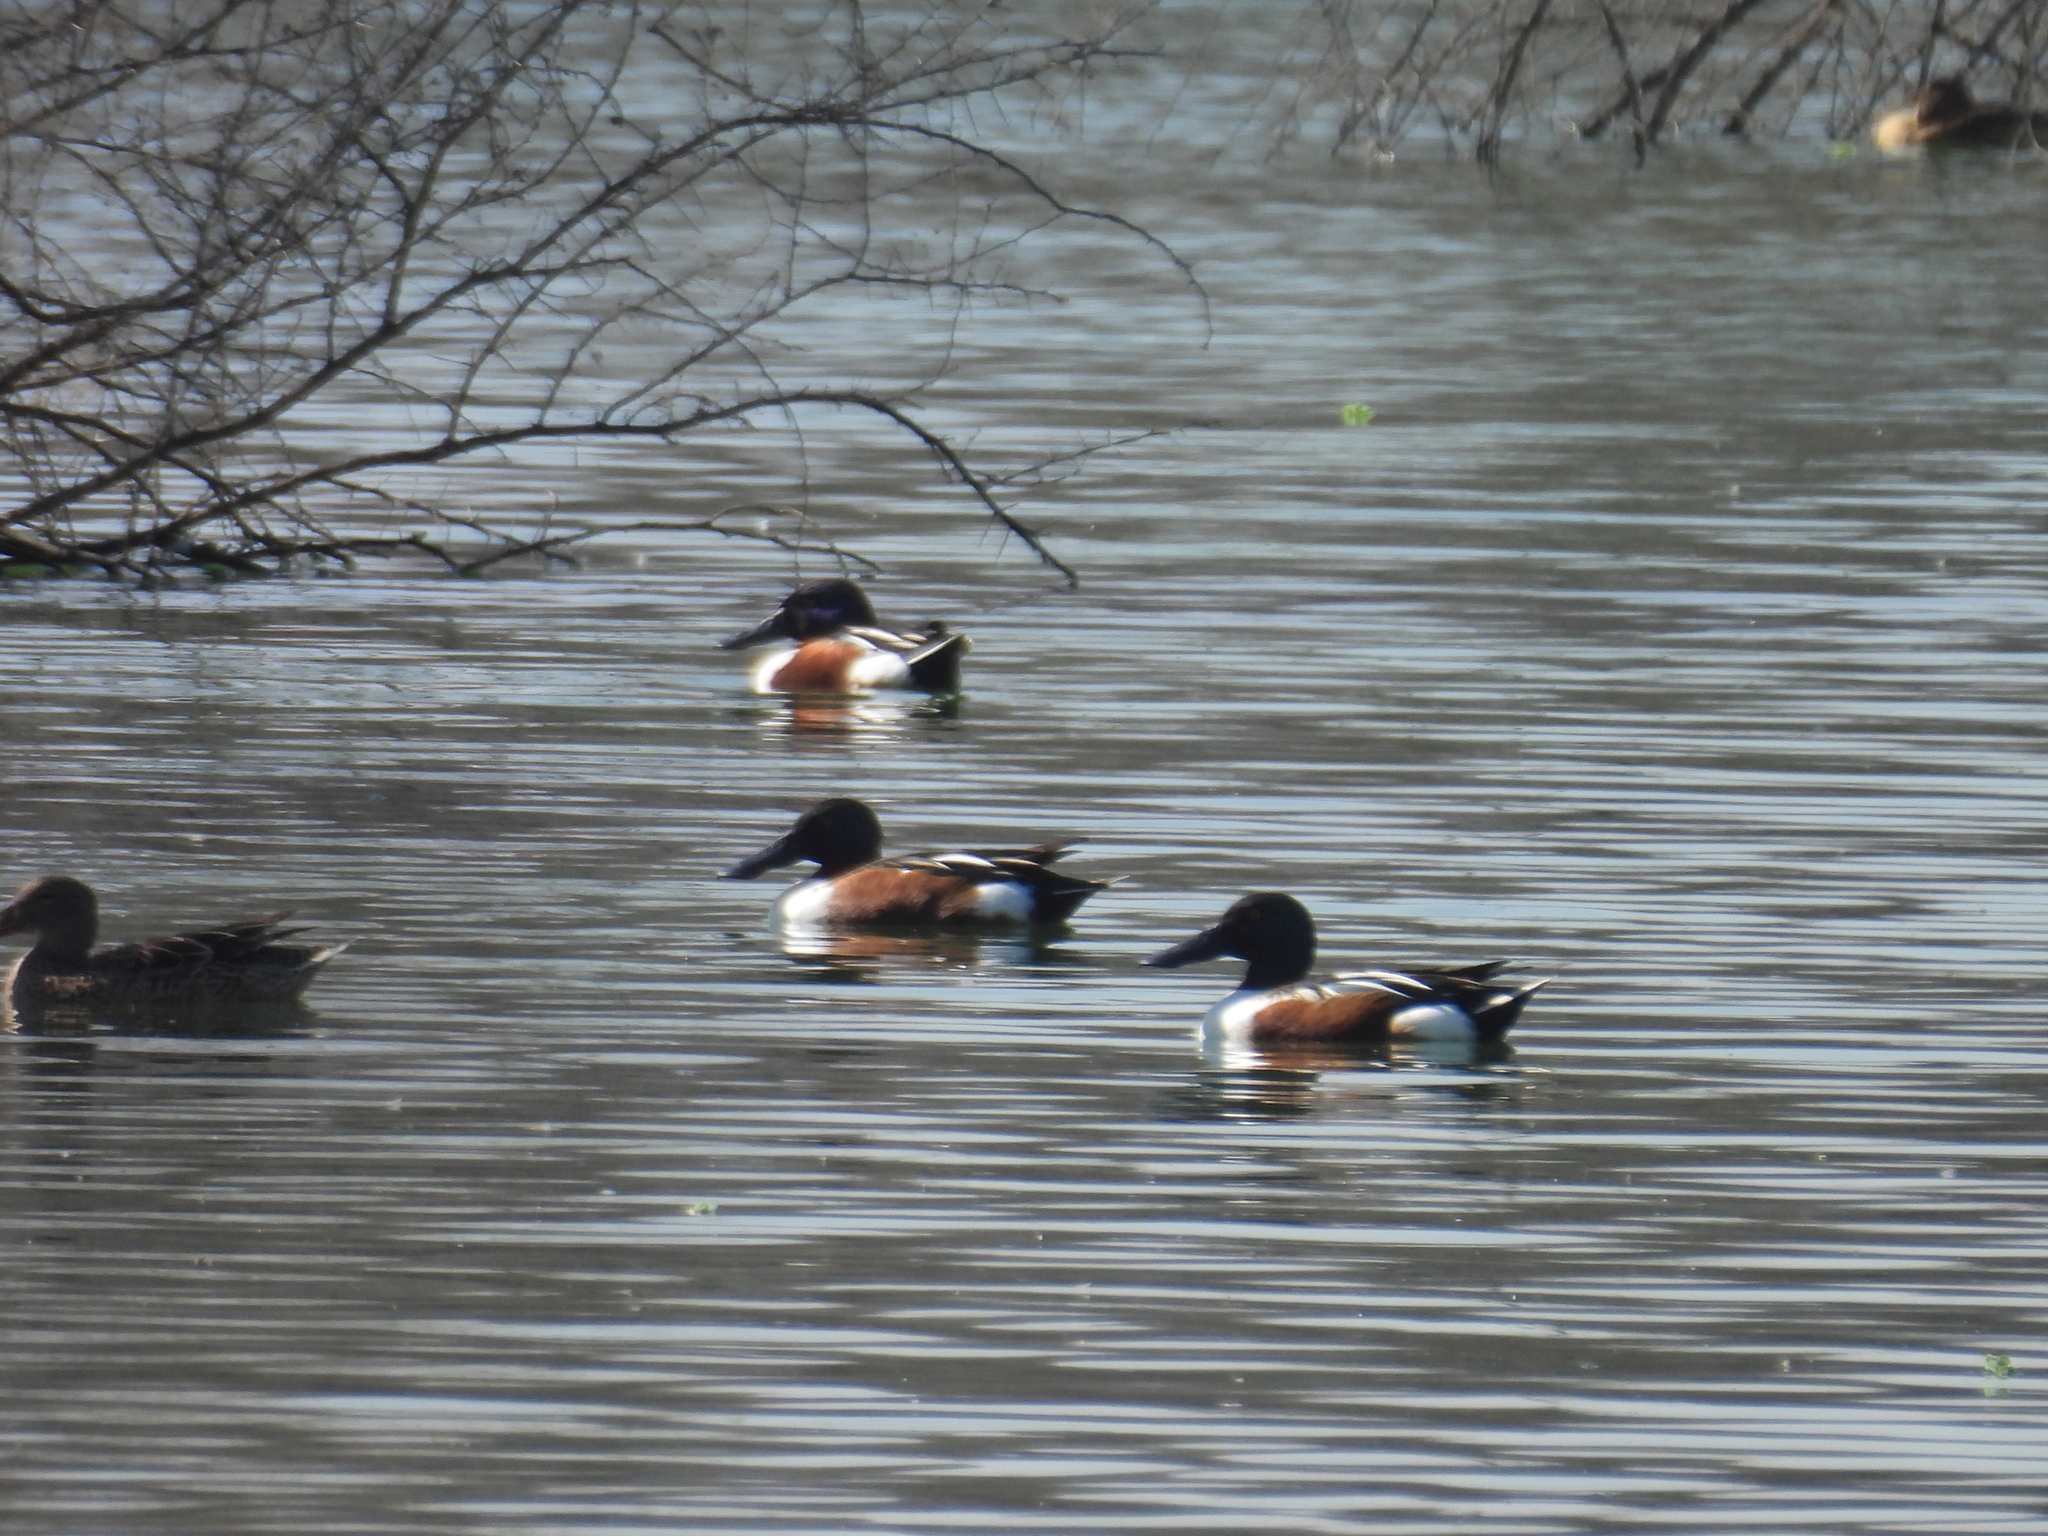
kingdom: Animalia
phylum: Chordata
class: Aves
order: Anseriformes
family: Anatidae
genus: Spatula
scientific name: Spatula clypeata
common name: Northern shoveler
